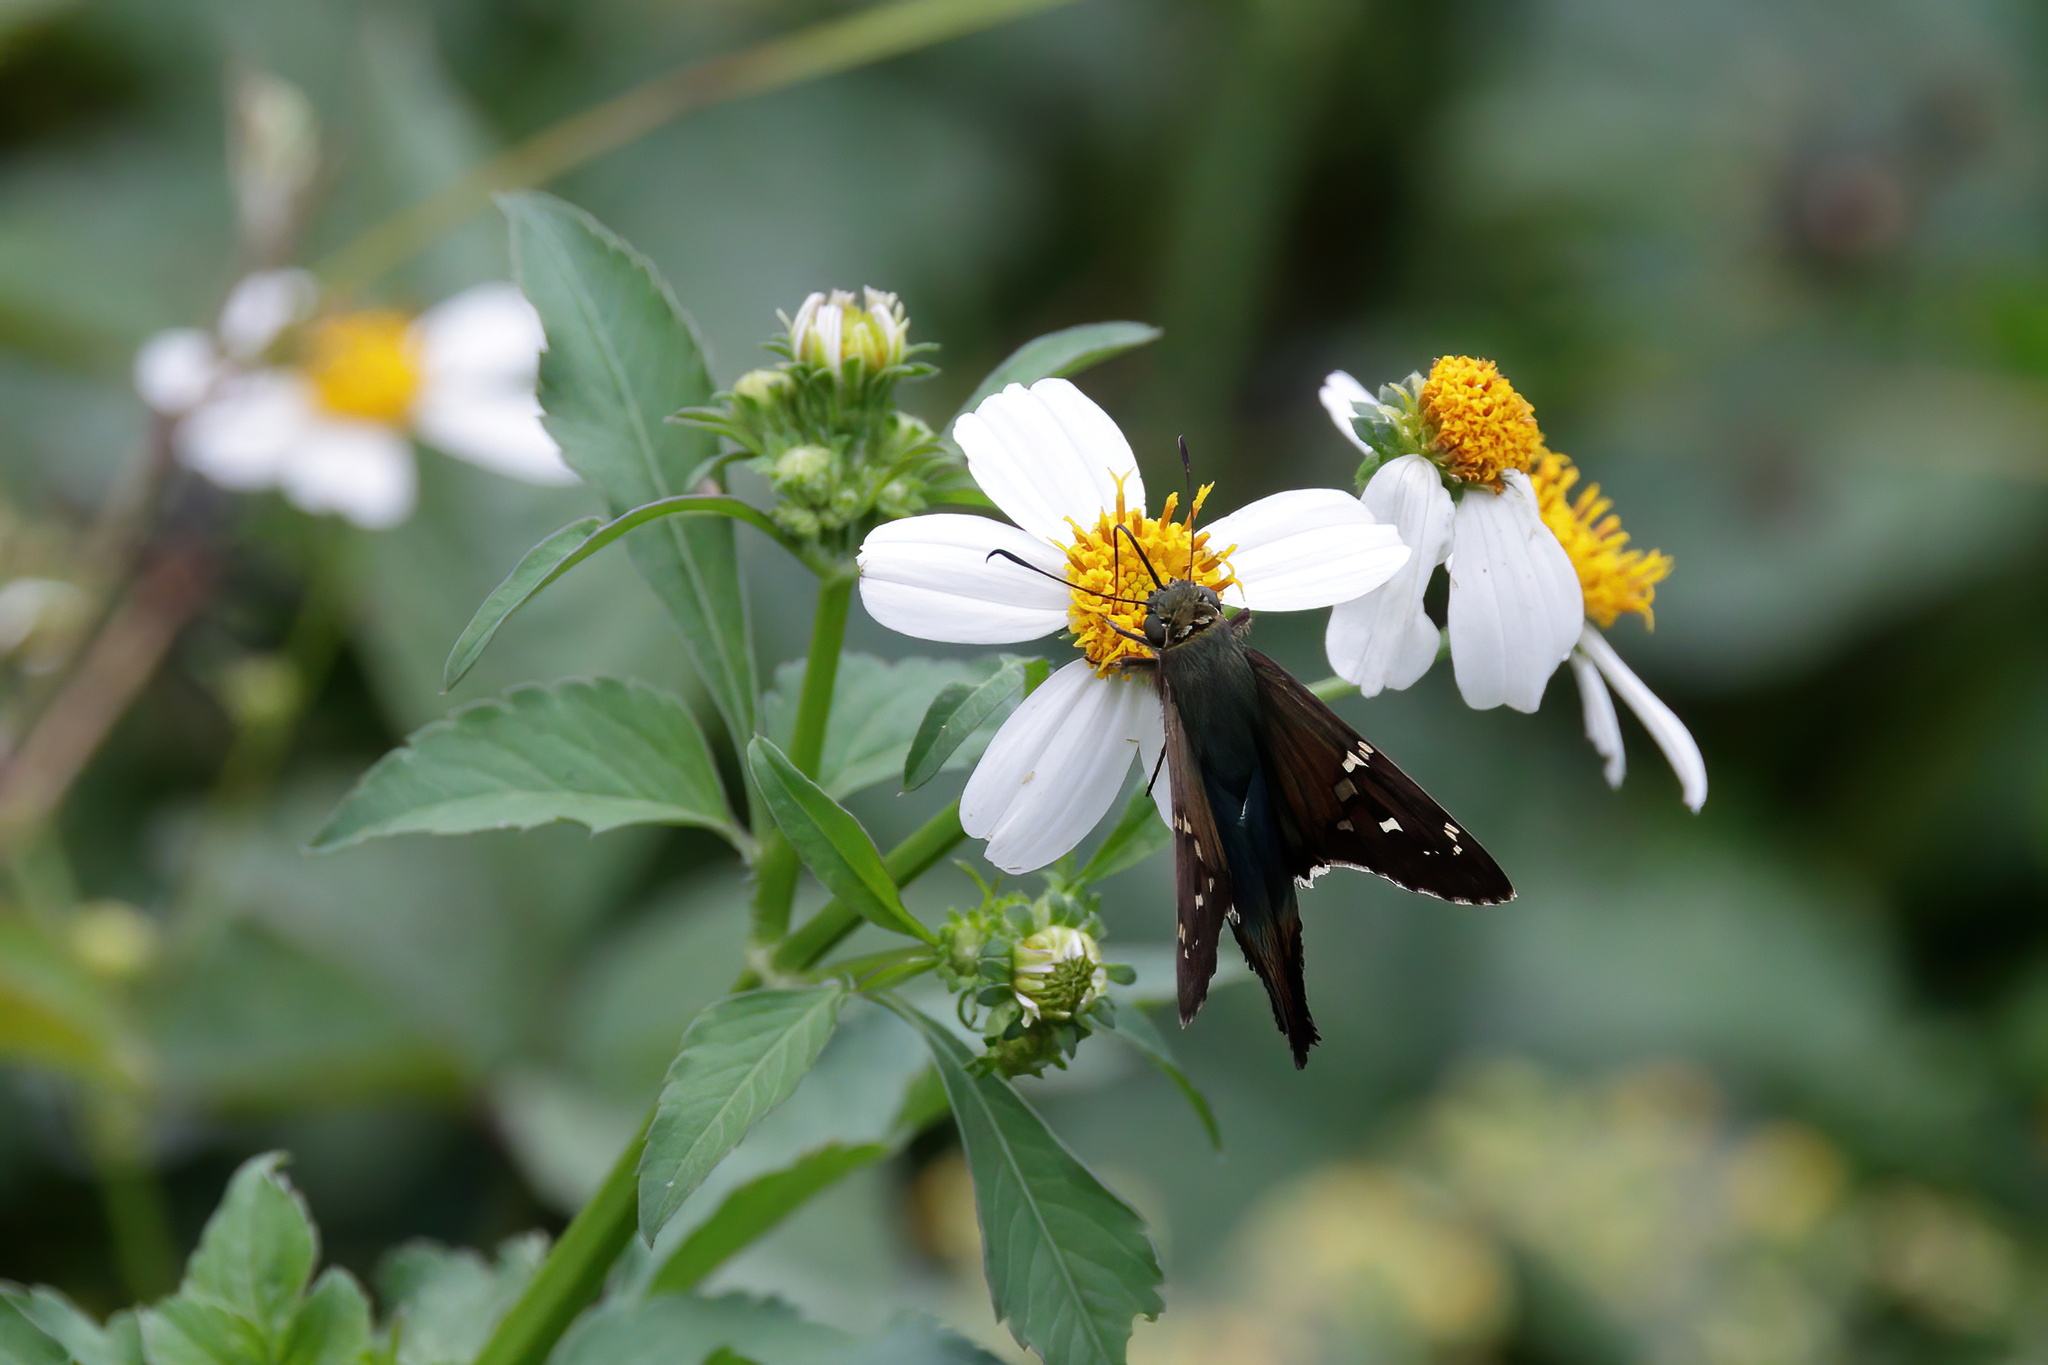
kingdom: Animalia
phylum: Arthropoda
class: Insecta
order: Lepidoptera
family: Hesperiidae
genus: Urbanus
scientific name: Urbanus proteus
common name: Long-tailed skipper
